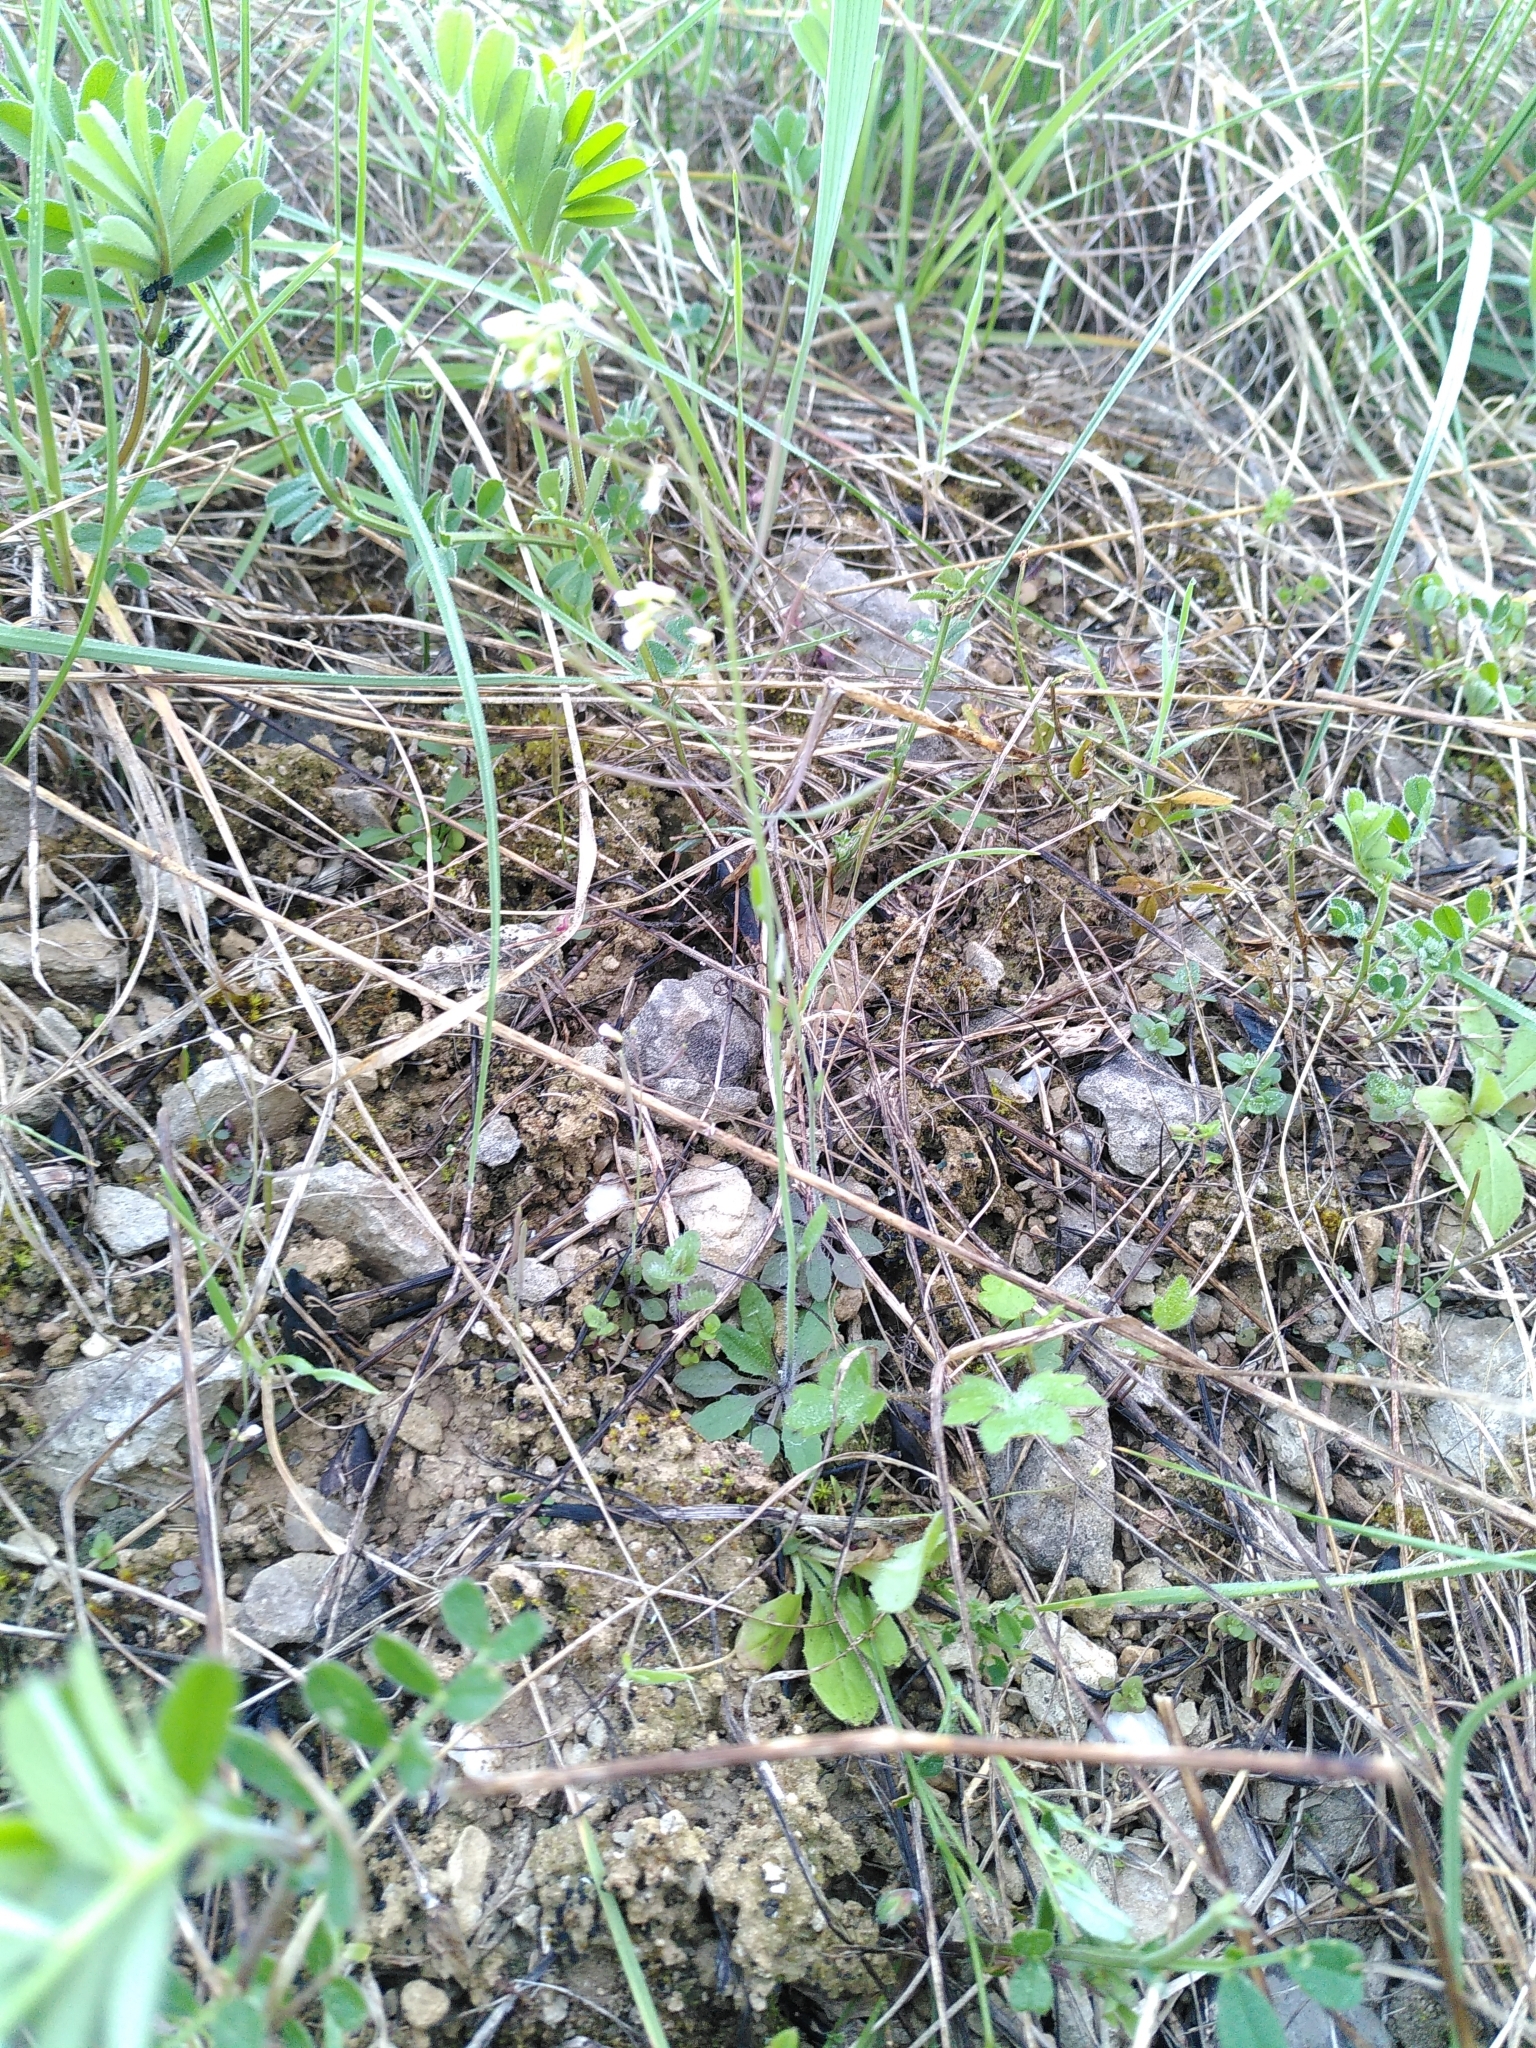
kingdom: Plantae
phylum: Tracheophyta
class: Magnoliopsida
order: Brassicales
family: Brassicaceae
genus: Arabidopsis
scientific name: Arabidopsis thaliana
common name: Thale cress
